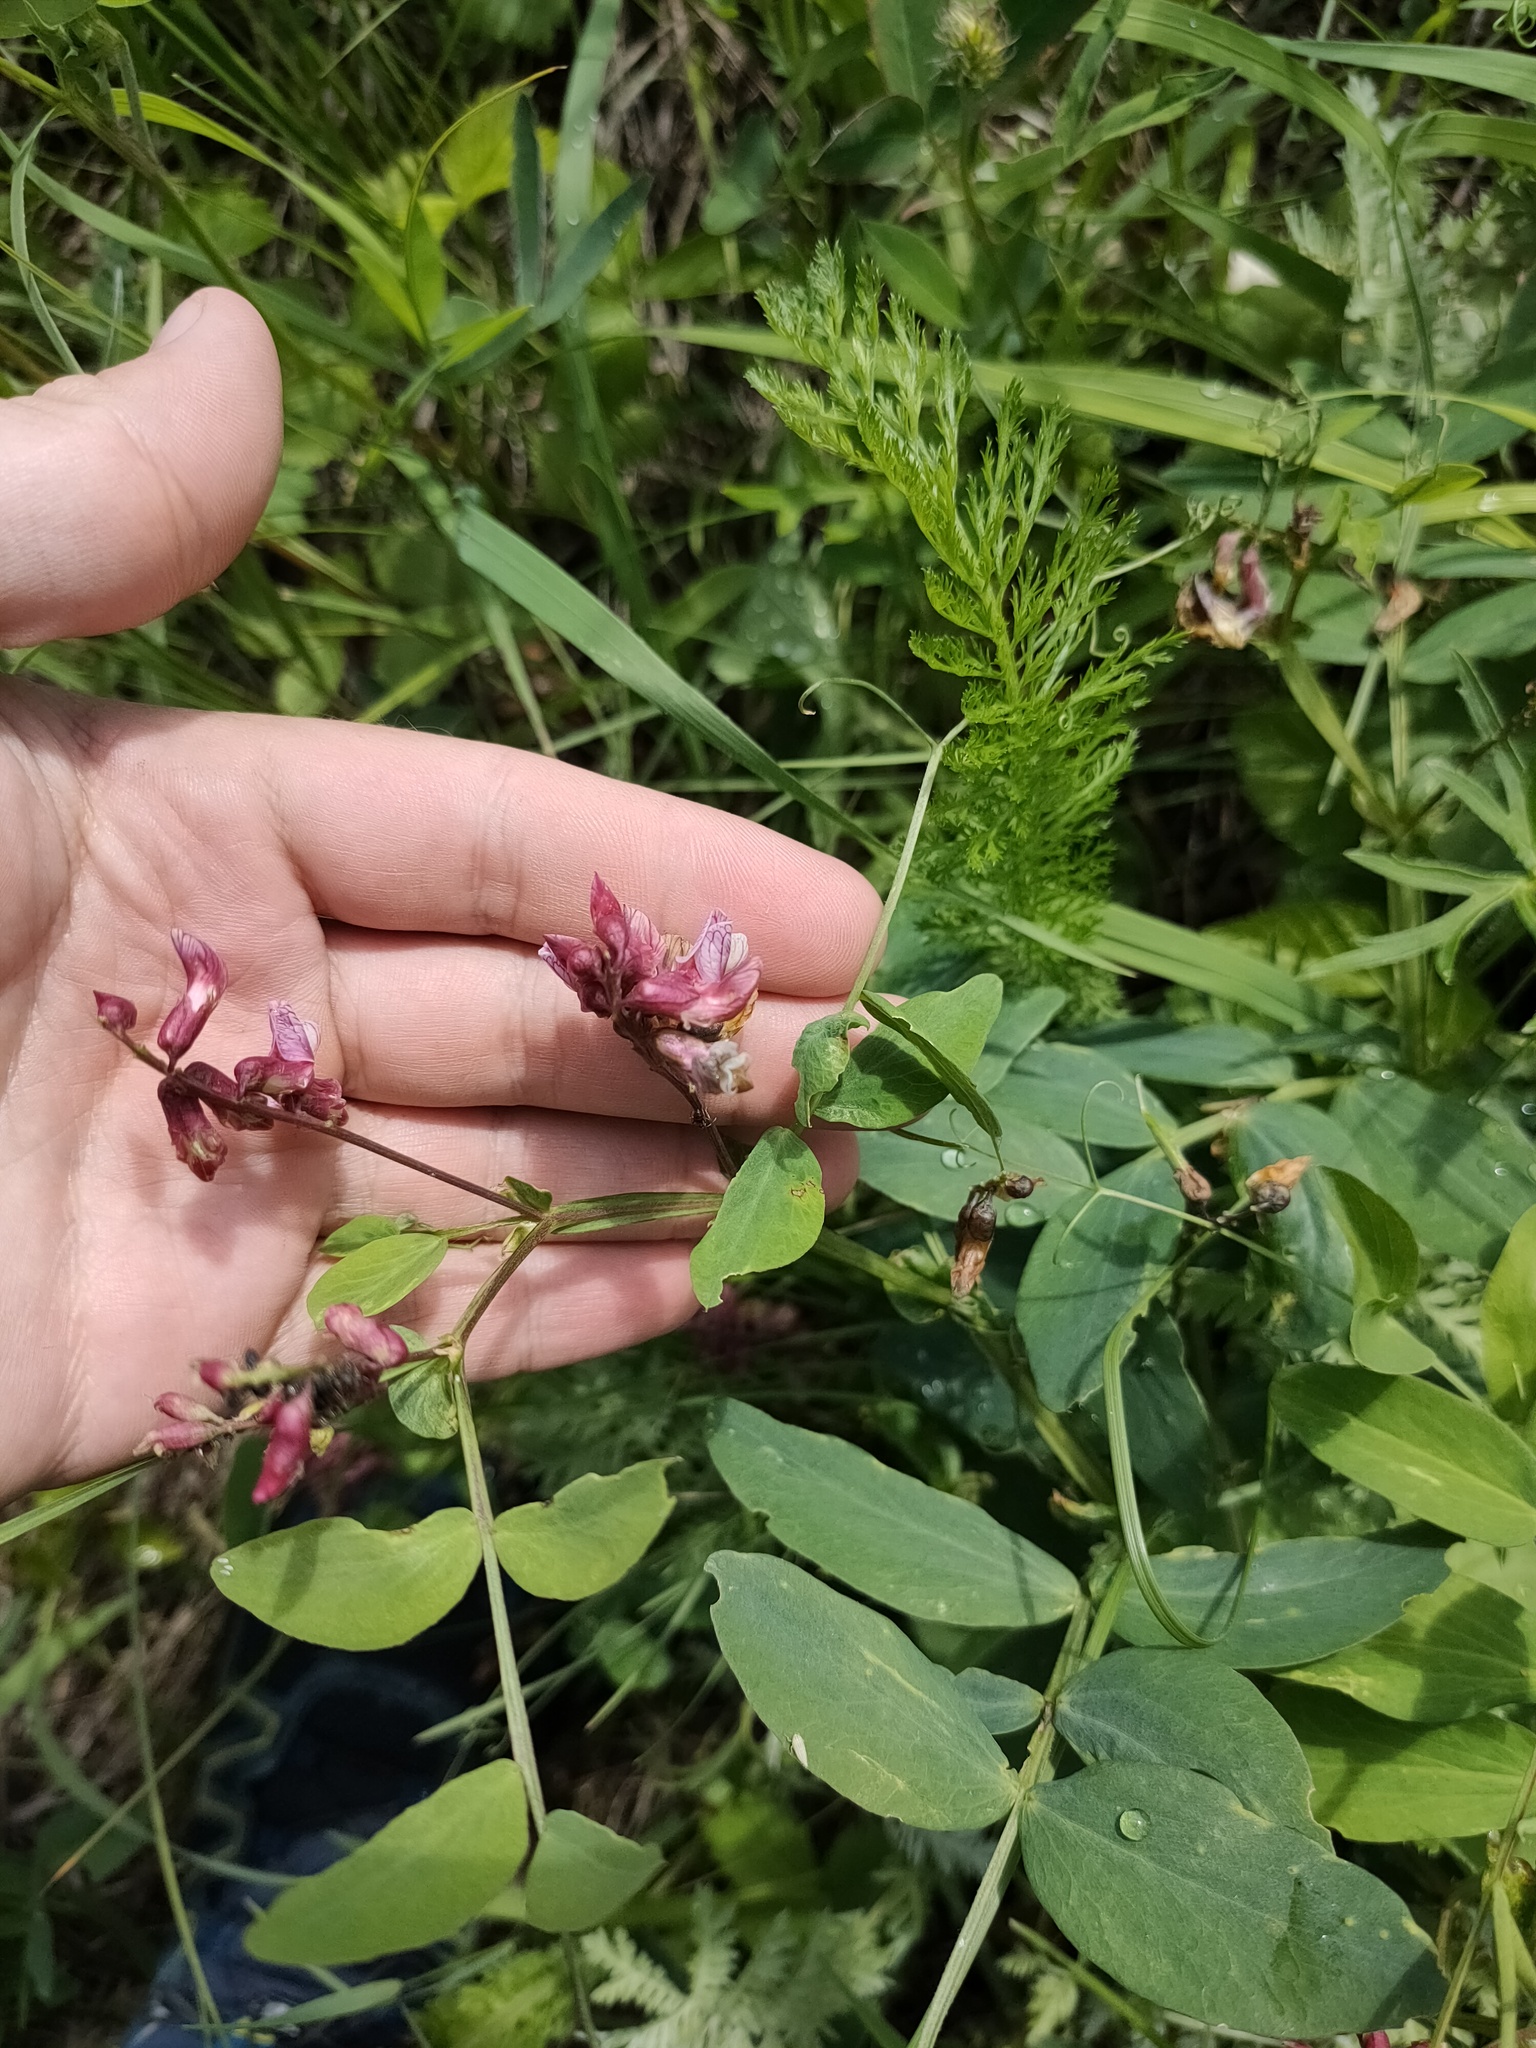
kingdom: Plantae
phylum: Tracheophyta
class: Magnoliopsida
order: Fabales
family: Fabaceae
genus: Lathyrus
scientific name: Lathyrus pisiformis
